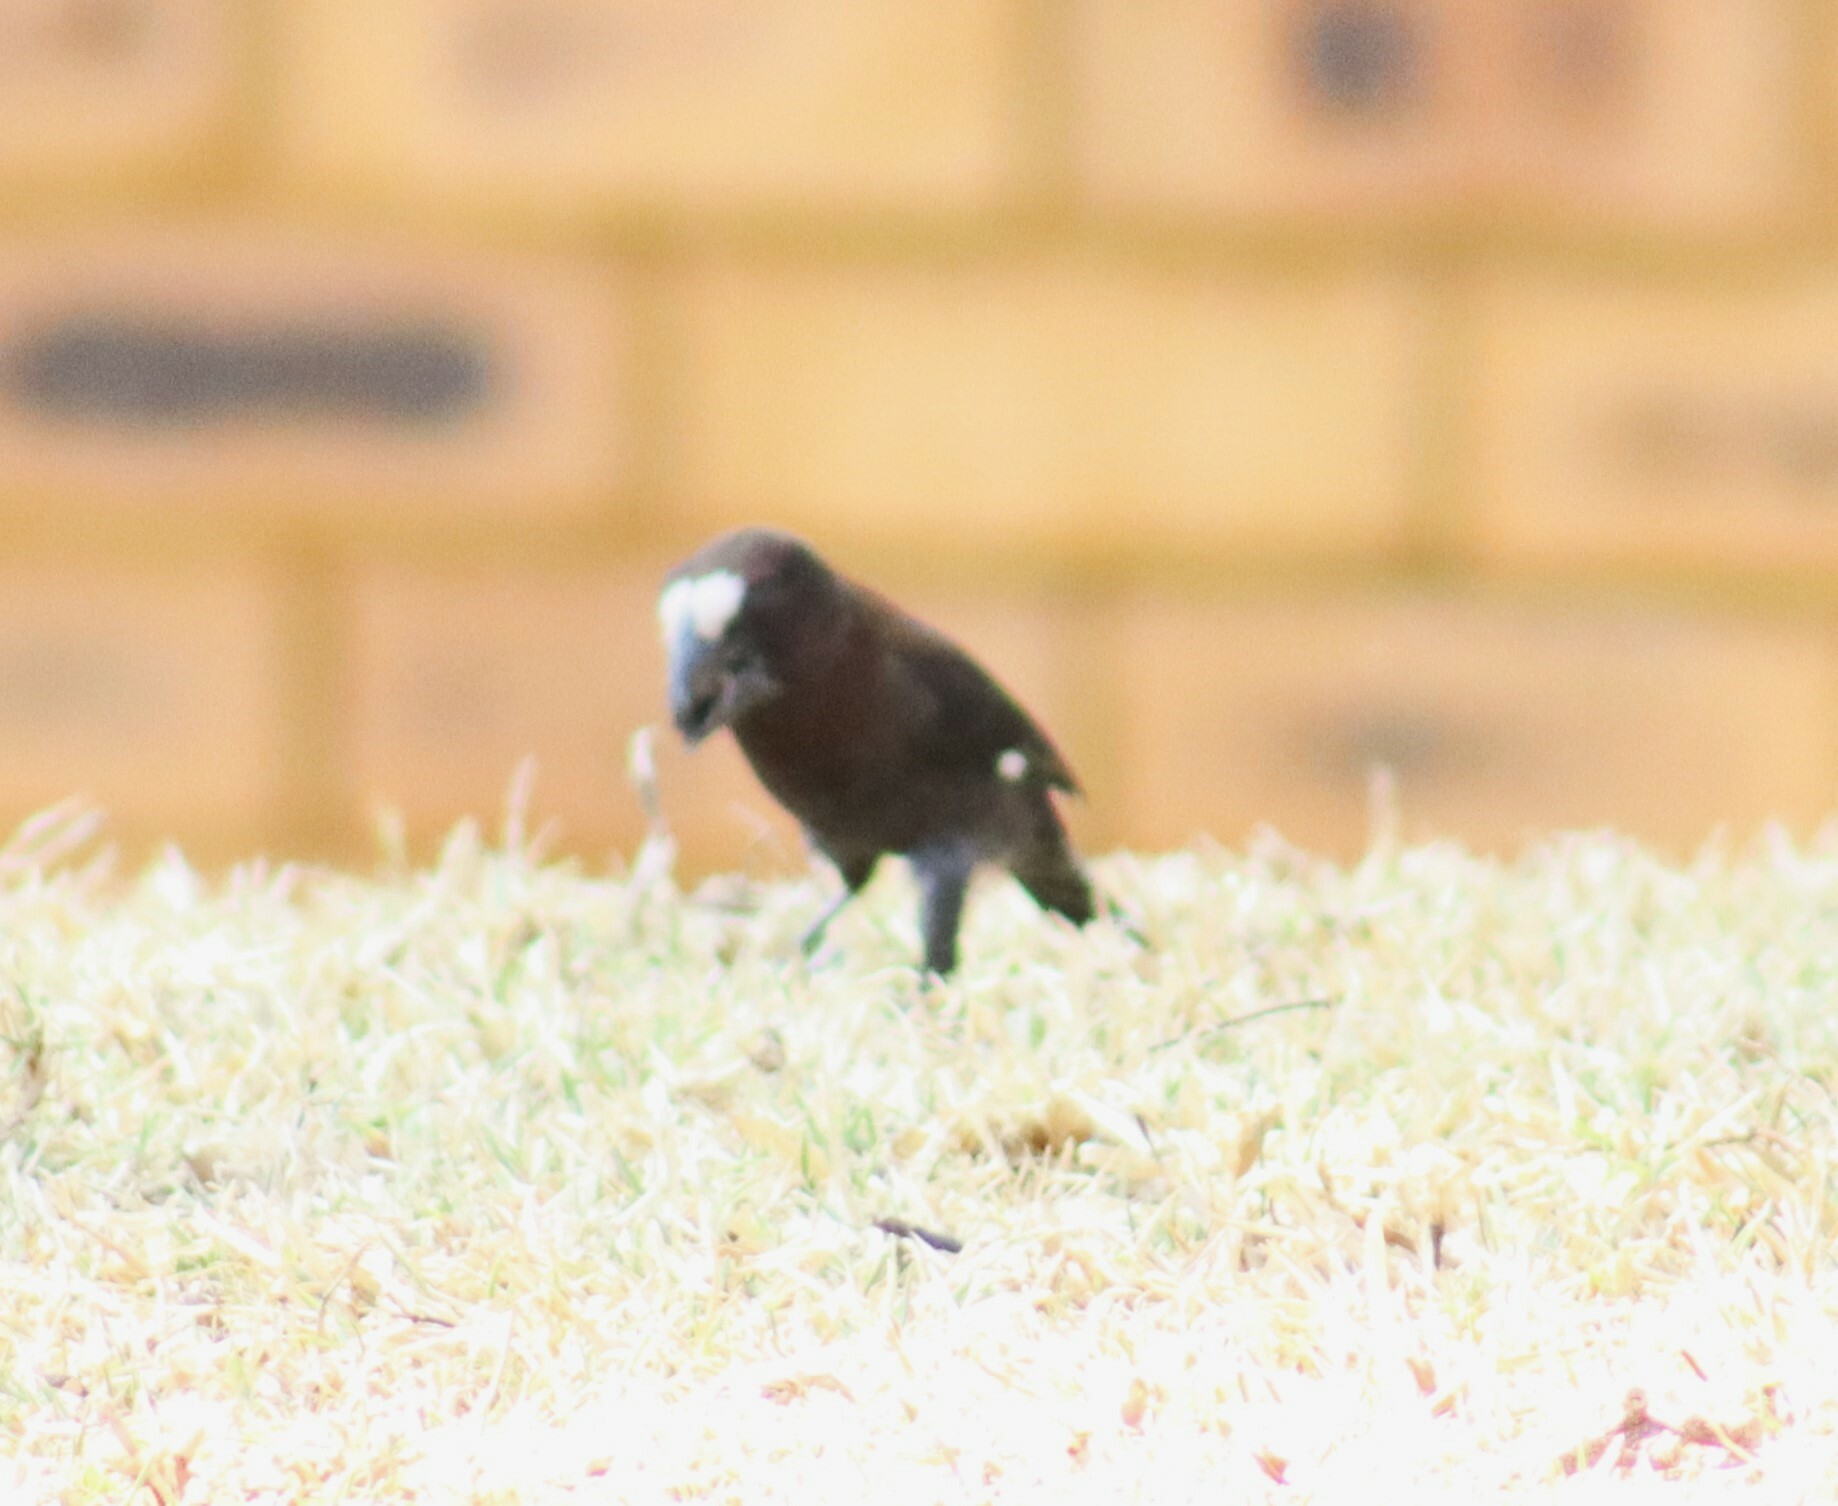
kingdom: Animalia
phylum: Chordata
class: Aves
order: Passeriformes
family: Ploceidae
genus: Amblyospiza
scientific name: Amblyospiza albifrons
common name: Thick-billed weaver
